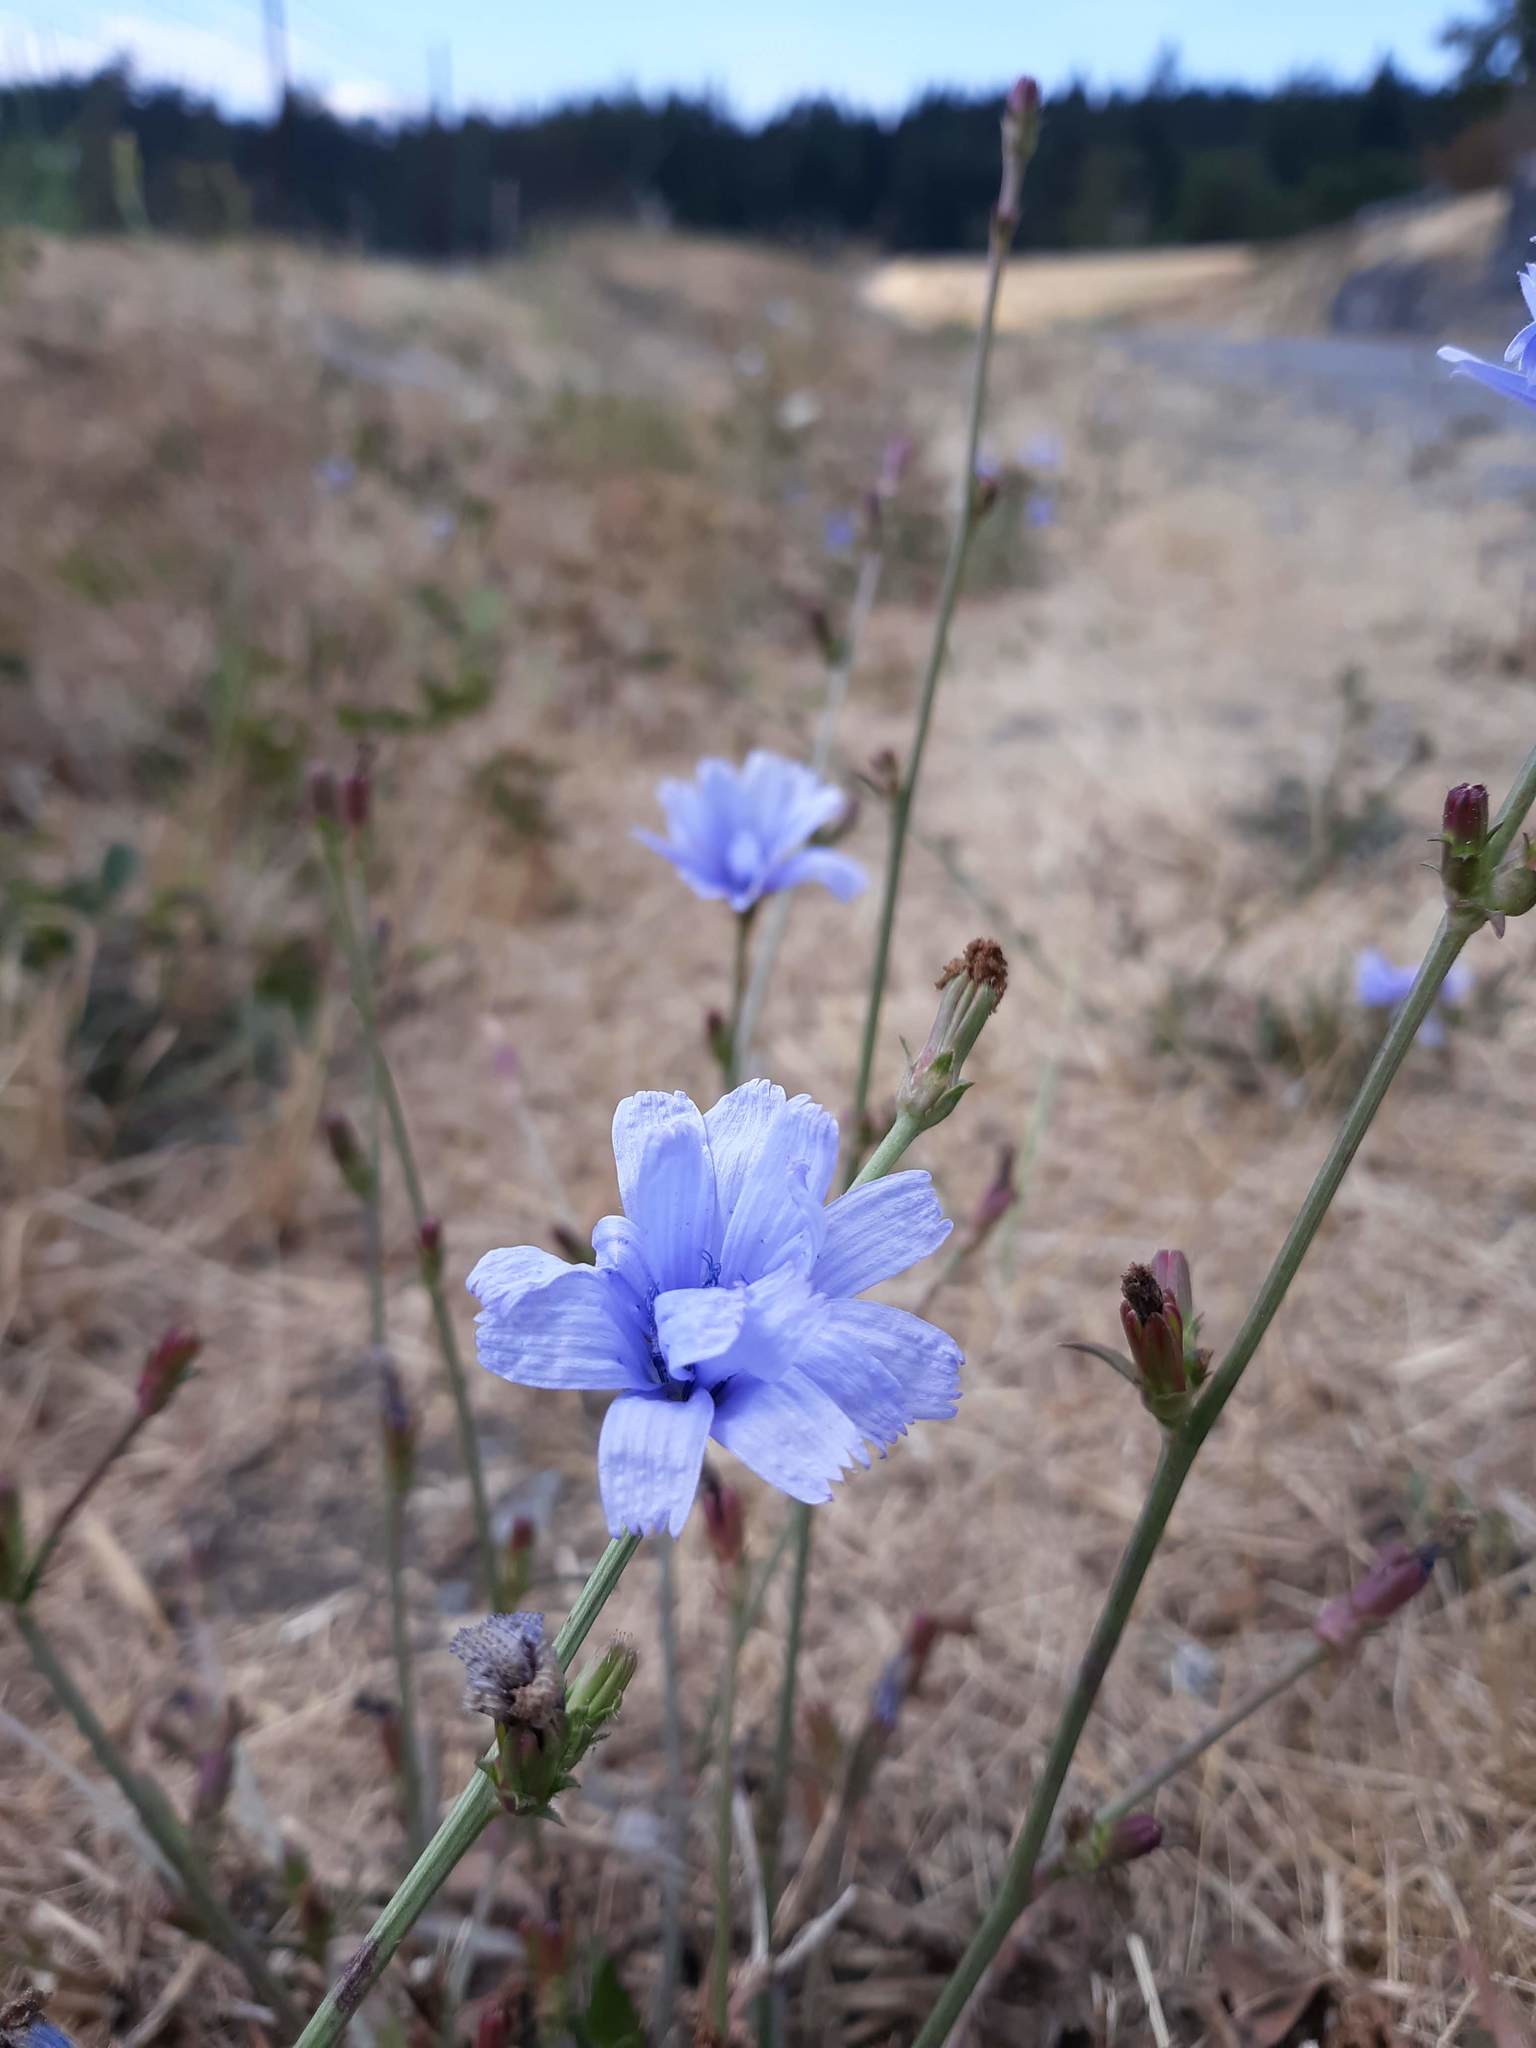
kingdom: Plantae
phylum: Tracheophyta
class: Magnoliopsida
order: Asterales
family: Asteraceae
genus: Cichorium
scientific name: Cichorium intybus
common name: Chicory
